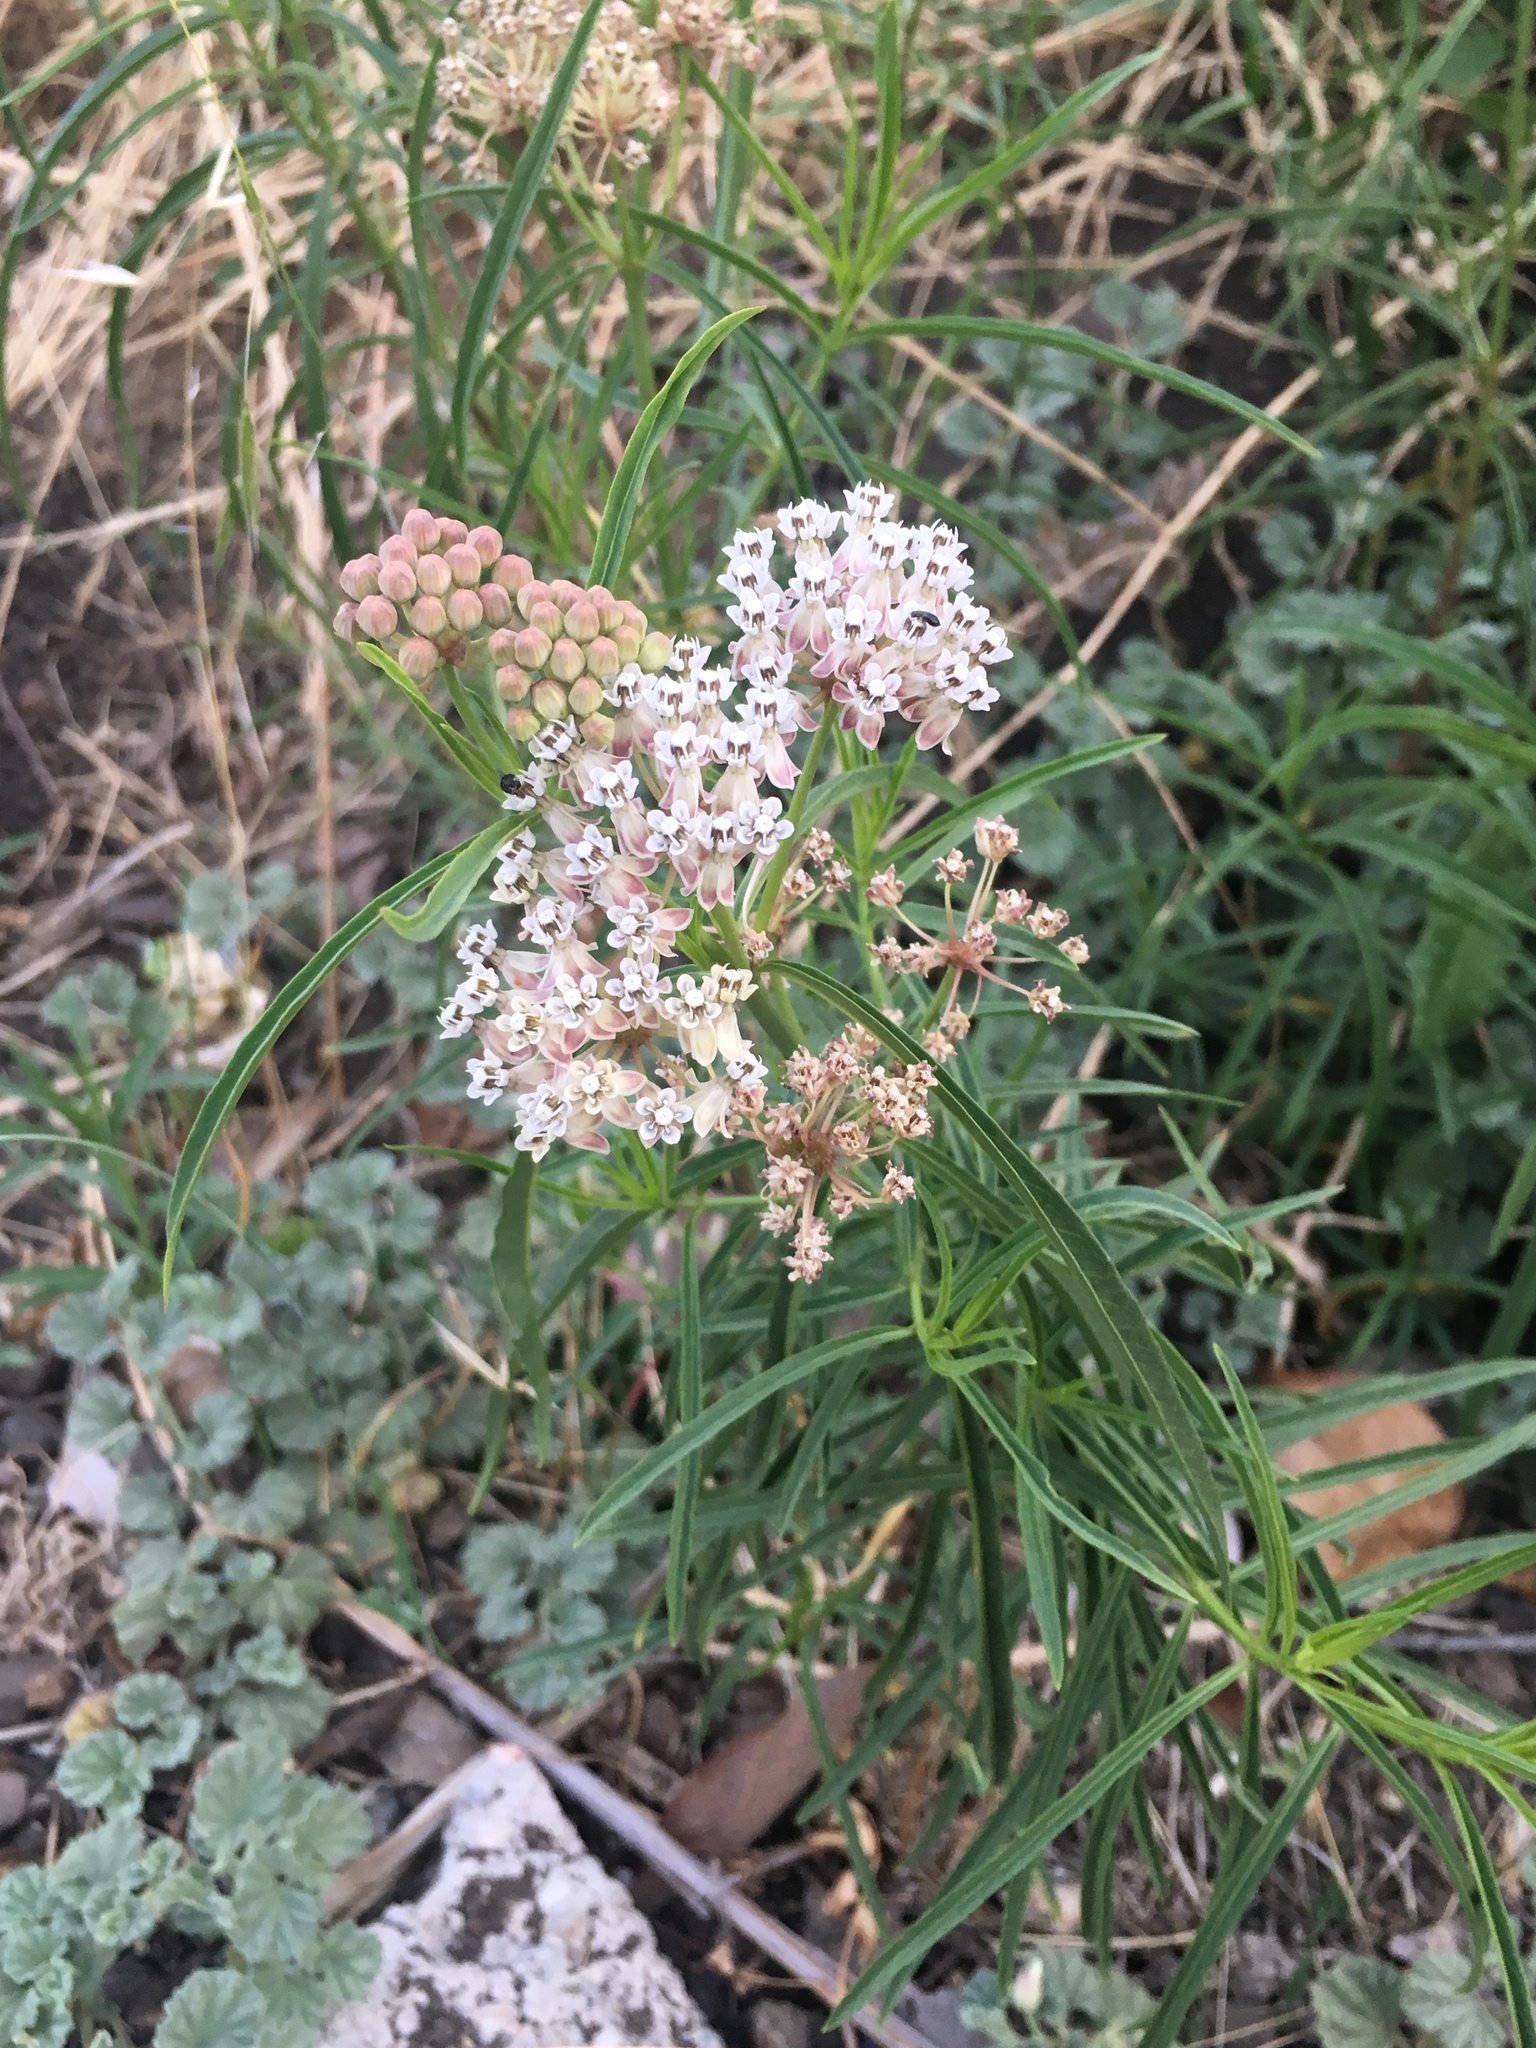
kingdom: Plantae
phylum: Tracheophyta
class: Magnoliopsida
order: Gentianales
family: Apocynaceae
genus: Asclepias
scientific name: Asclepias fascicularis
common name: Mexican milkweed
